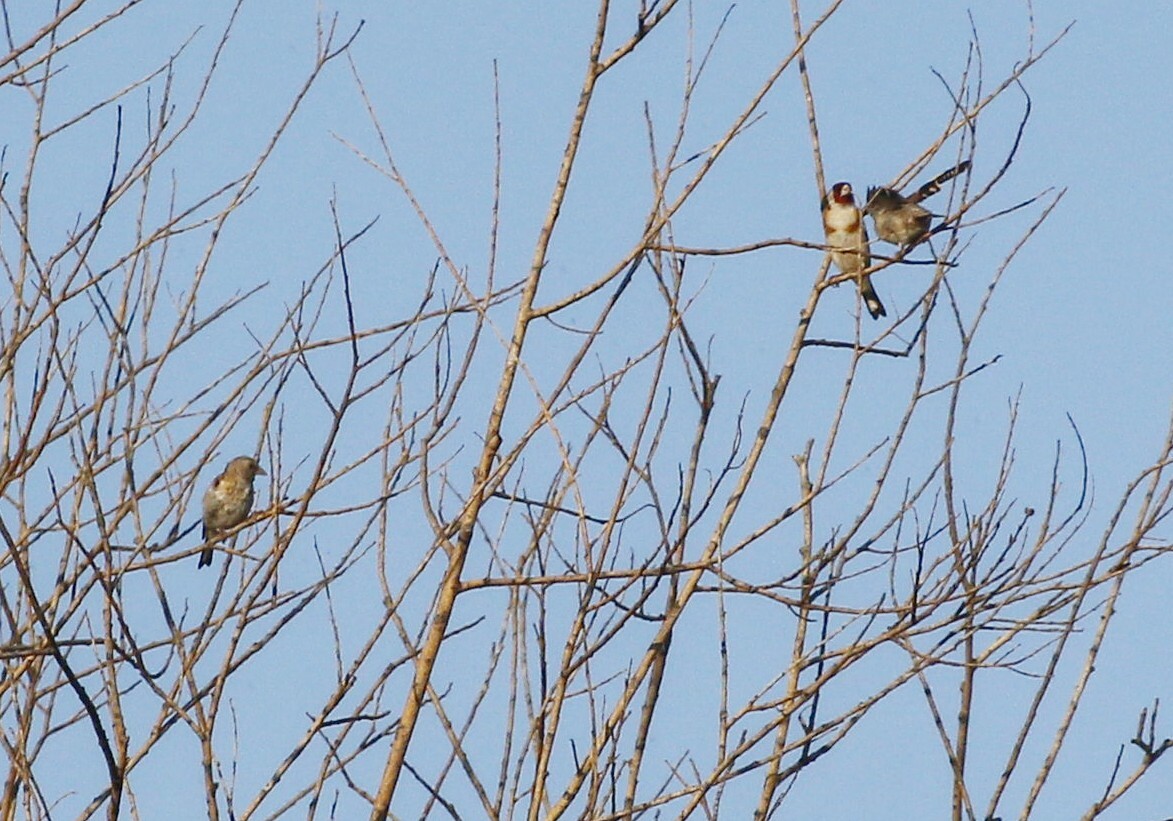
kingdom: Animalia
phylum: Chordata
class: Aves
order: Passeriformes
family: Fringillidae
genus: Carduelis
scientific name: Carduelis carduelis
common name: European goldfinch
